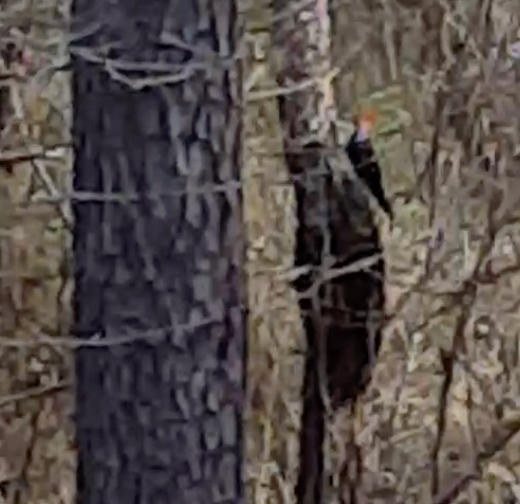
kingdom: Animalia
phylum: Chordata
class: Aves
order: Piciformes
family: Picidae
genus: Dryocopus
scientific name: Dryocopus pileatus
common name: Pileated woodpecker
